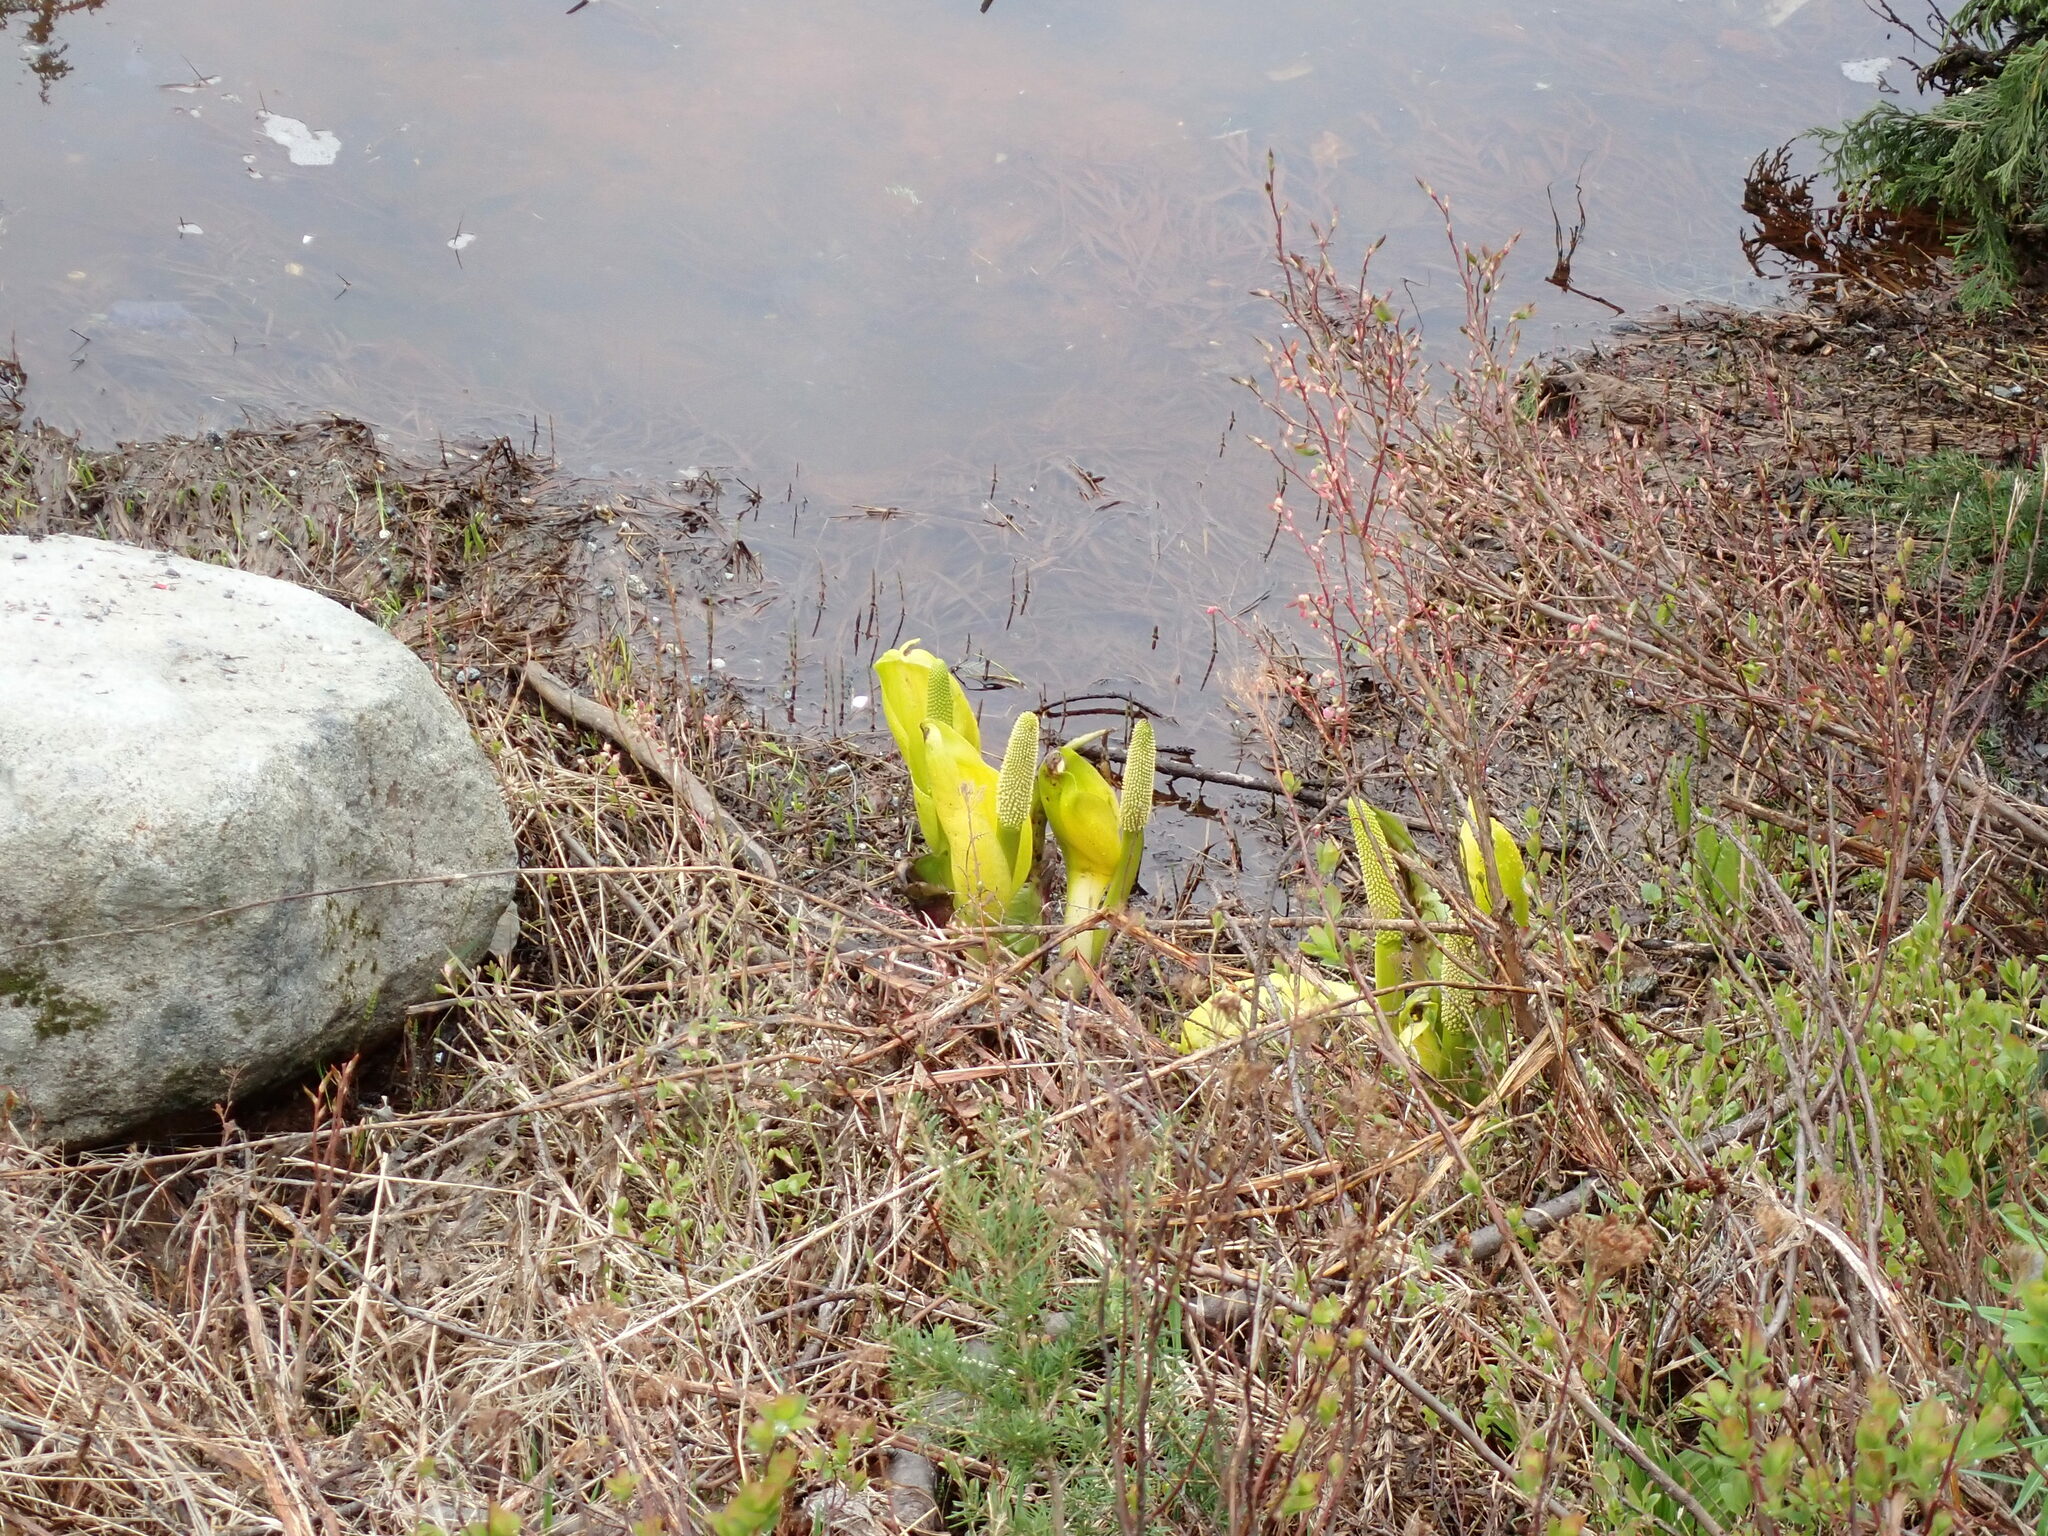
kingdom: Plantae
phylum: Tracheophyta
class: Liliopsida
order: Alismatales
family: Araceae
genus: Lysichiton
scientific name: Lysichiton americanus
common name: American skunk cabbage
